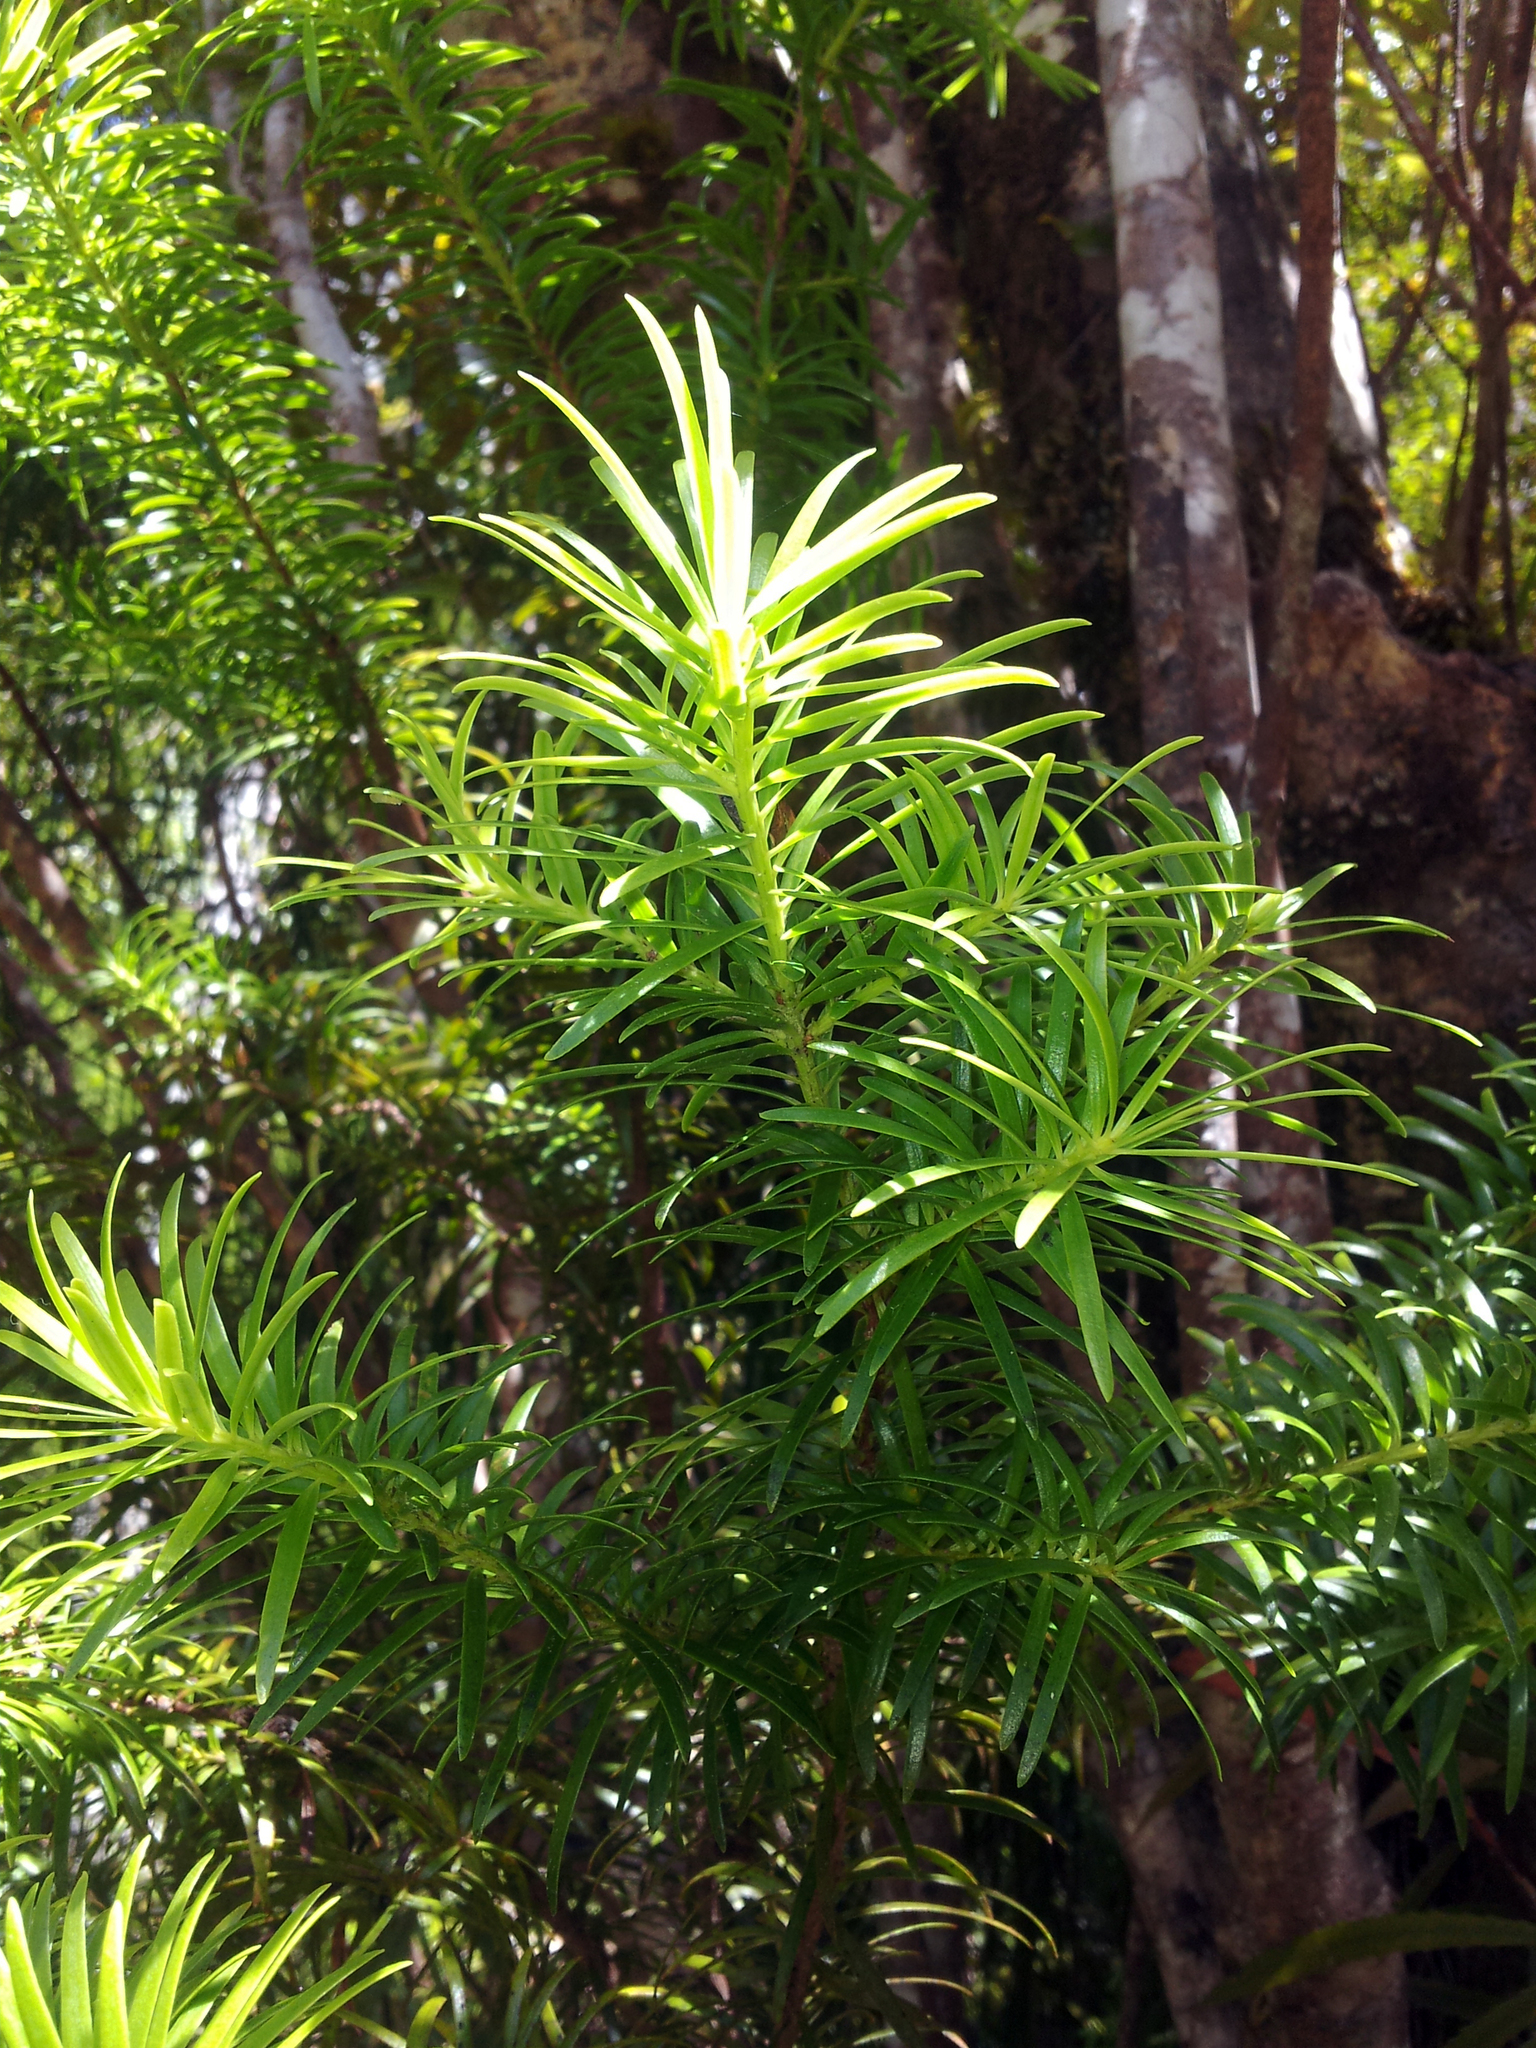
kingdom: Plantae
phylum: Tracheophyta
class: Pinopsida
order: Pinales
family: Podocarpaceae
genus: Halocarpus
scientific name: Halocarpus kirkii
